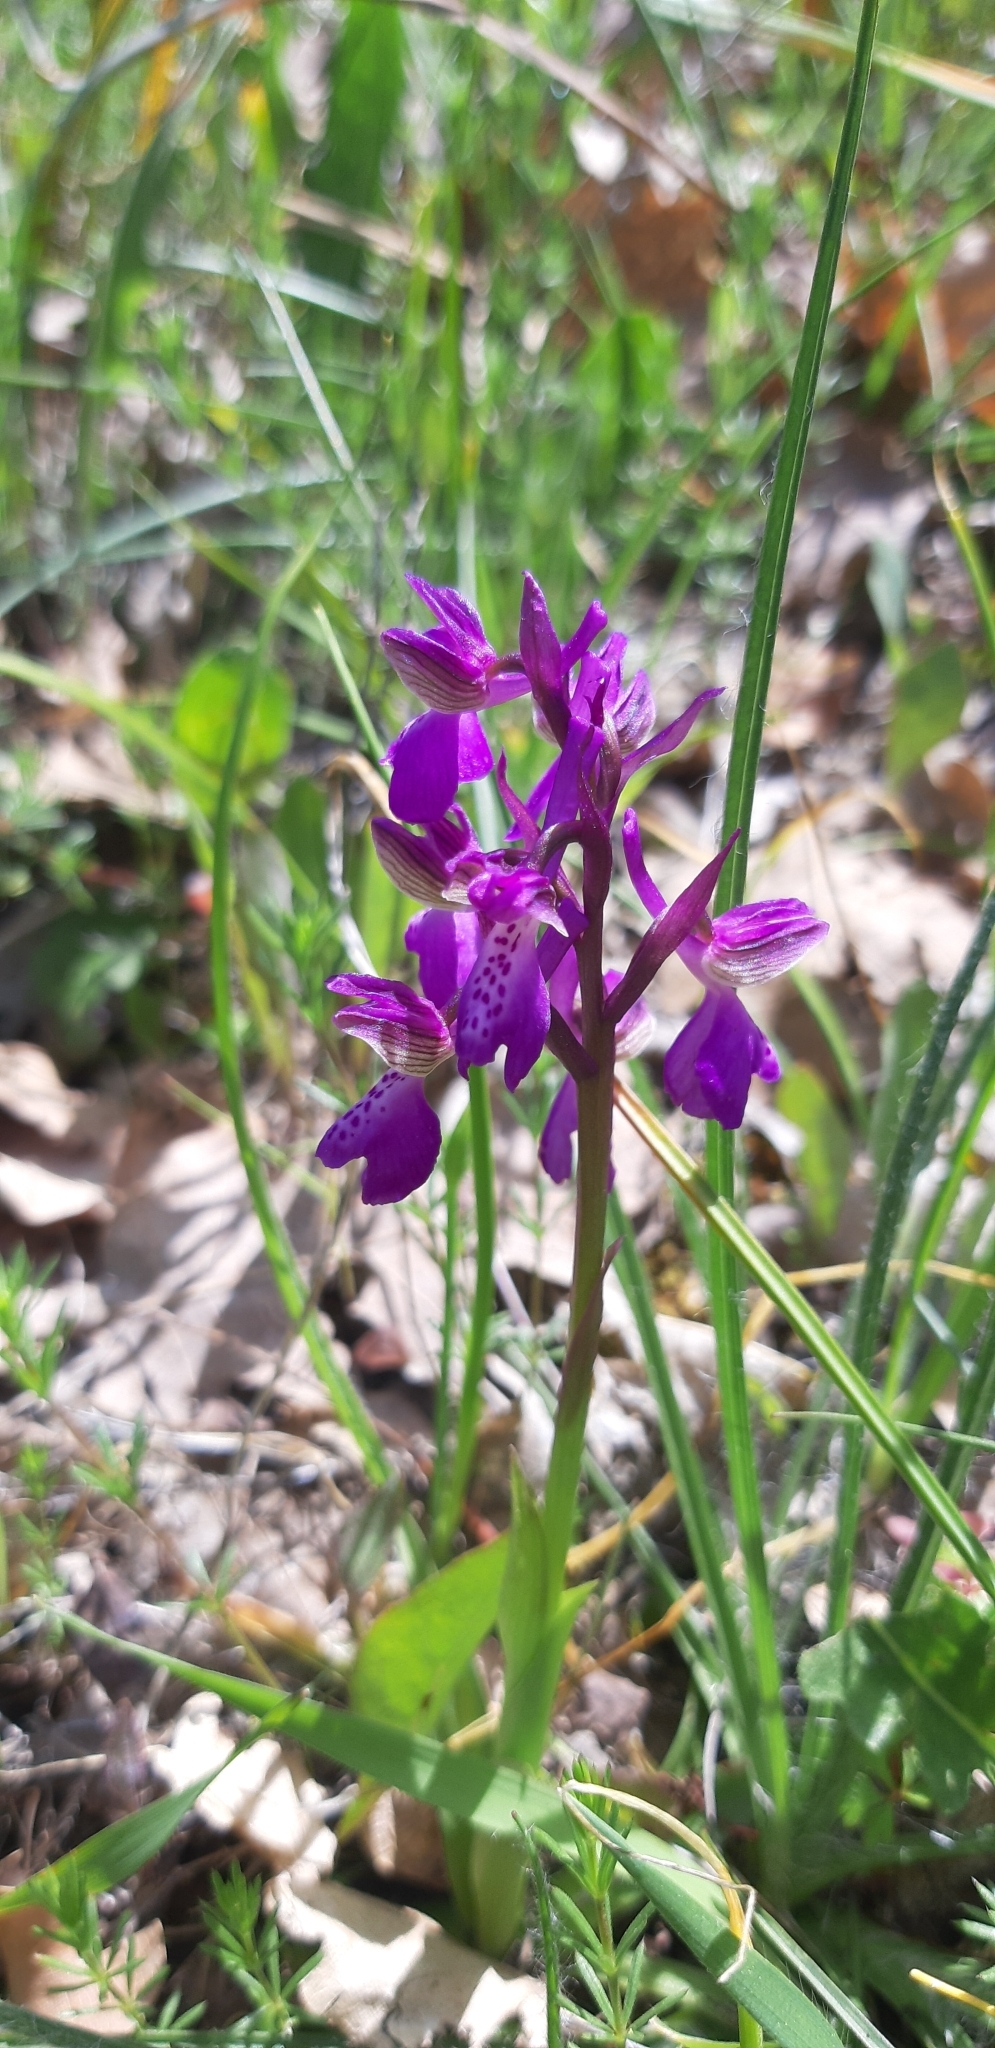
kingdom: Plantae
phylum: Tracheophyta
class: Liliopsida
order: Asparagales
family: Orchidaceae
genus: Anacamptis
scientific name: Anacamptis morio
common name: Green-winged orchid
